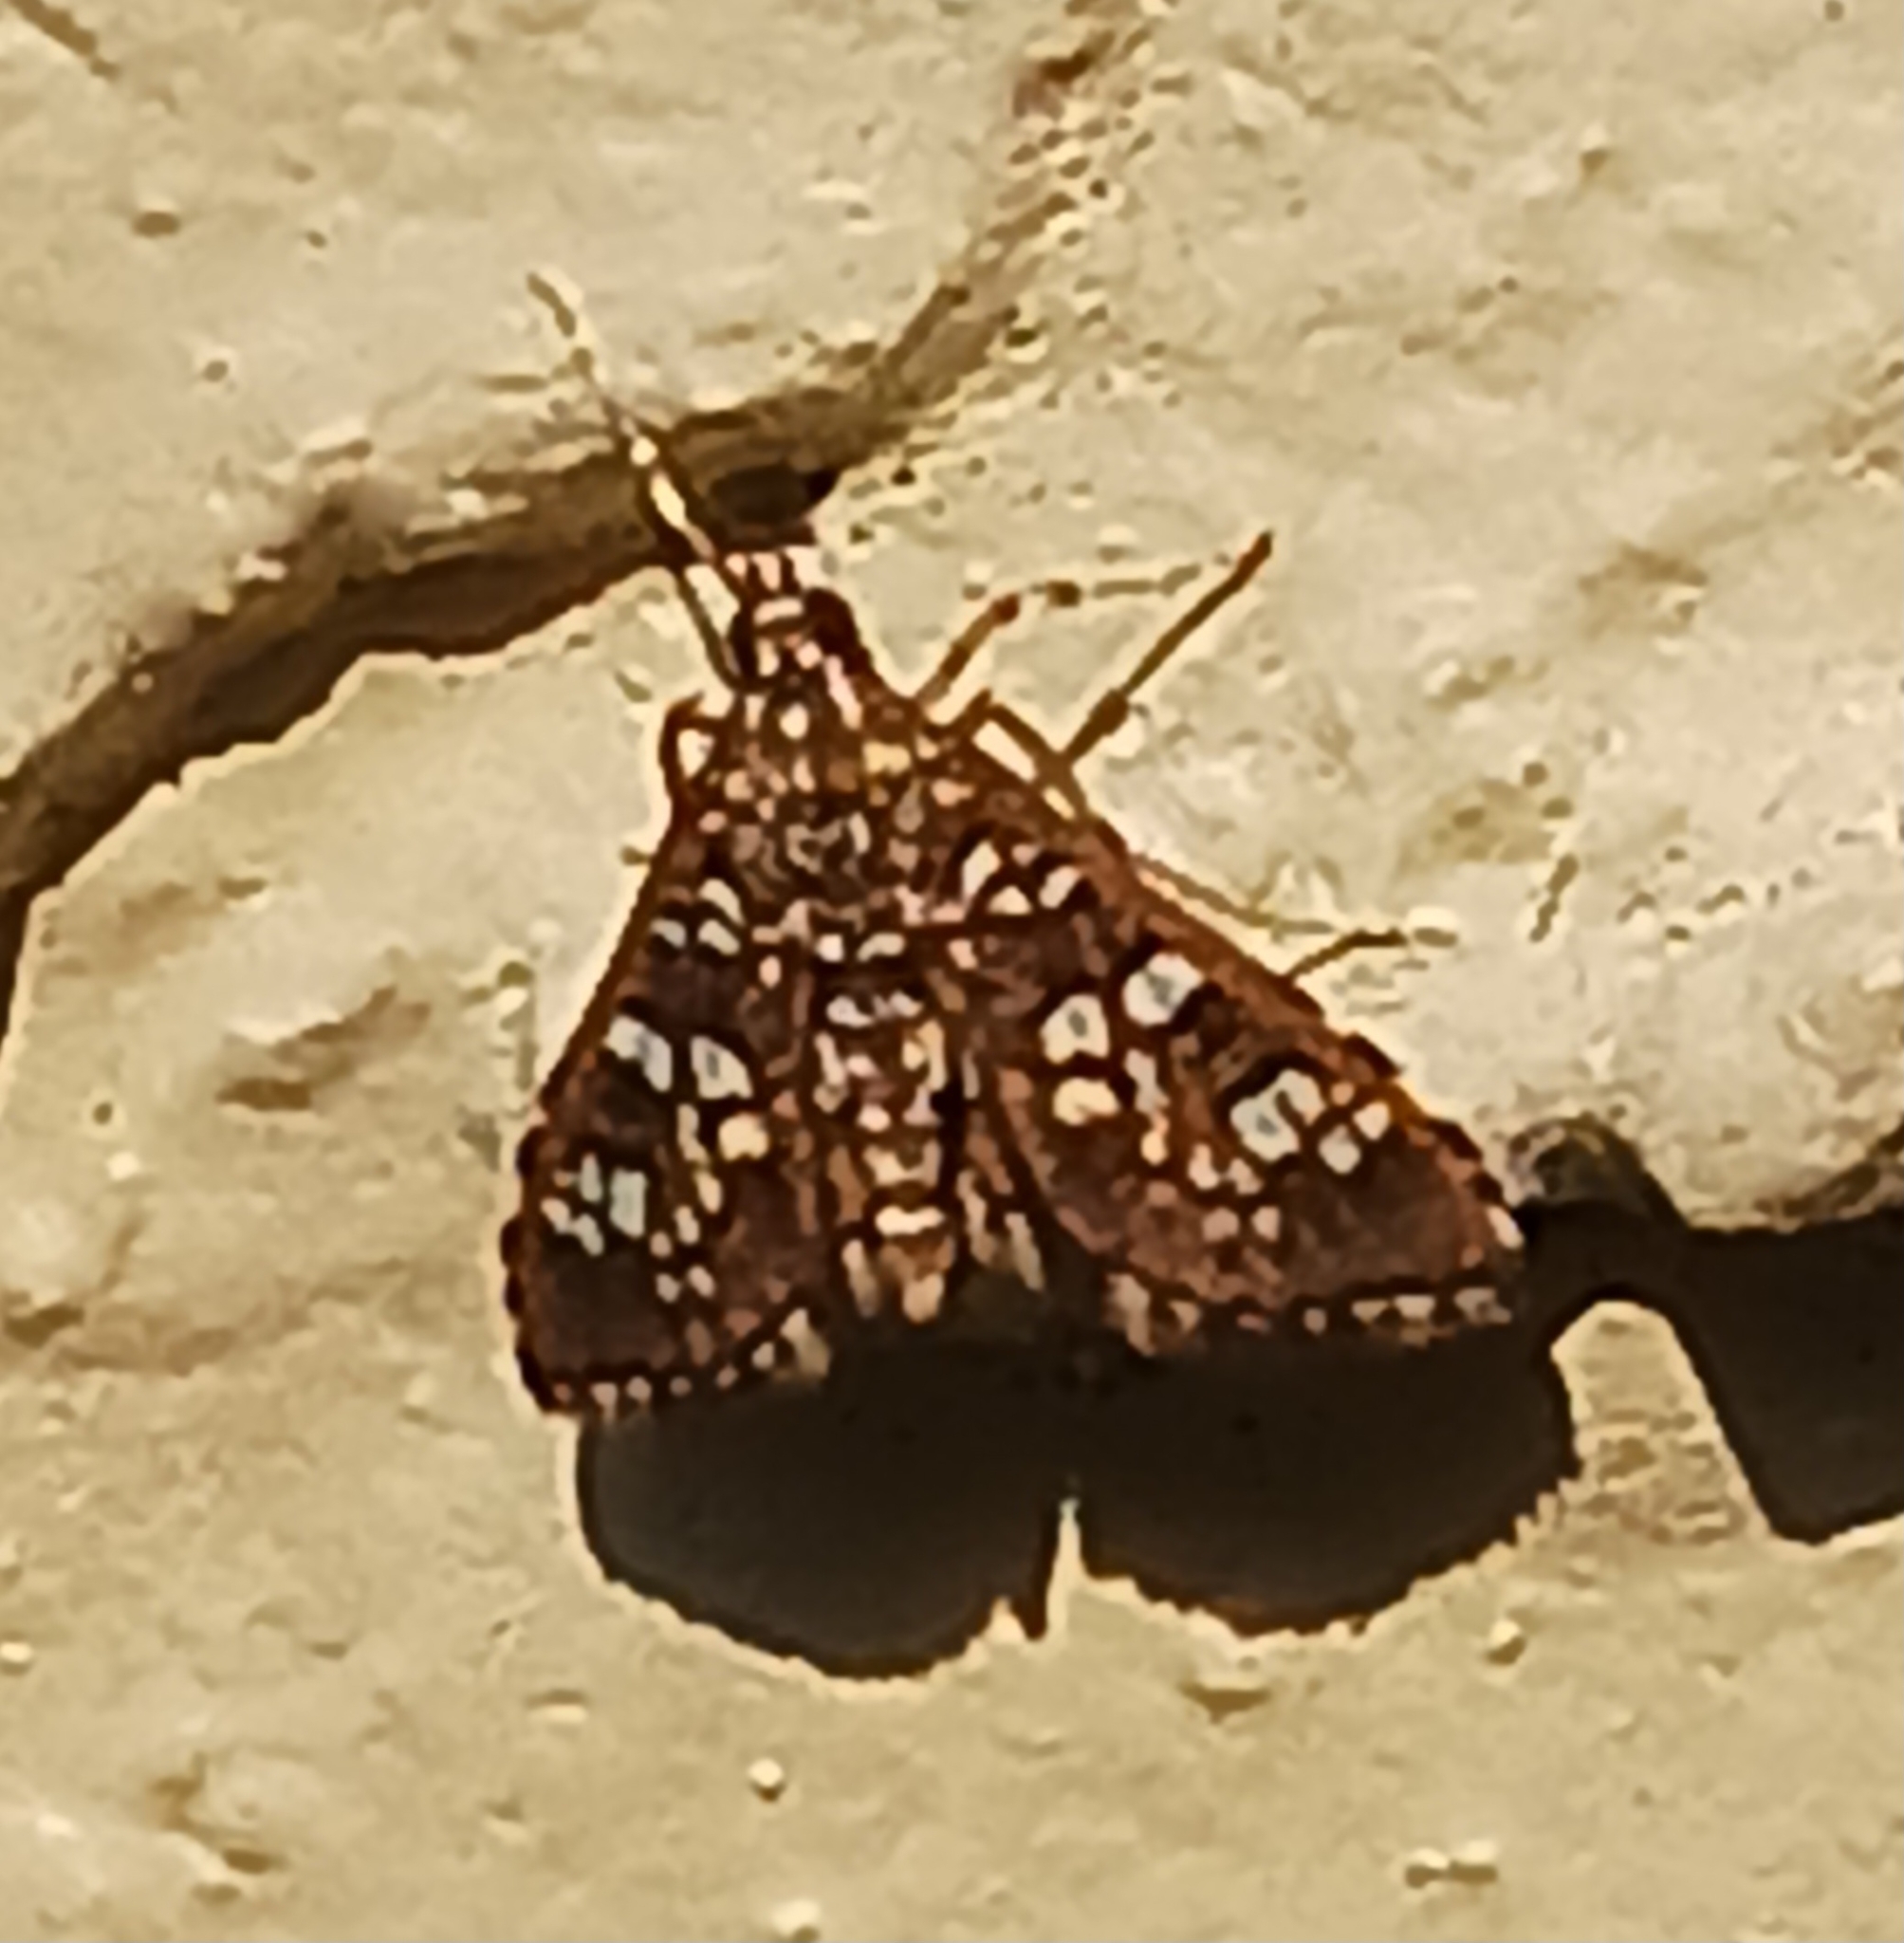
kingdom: Animalia
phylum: Arthropoda
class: Insecta
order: Lepidoptera
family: Crambidae
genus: Samea
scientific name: Samea ecclesialis
